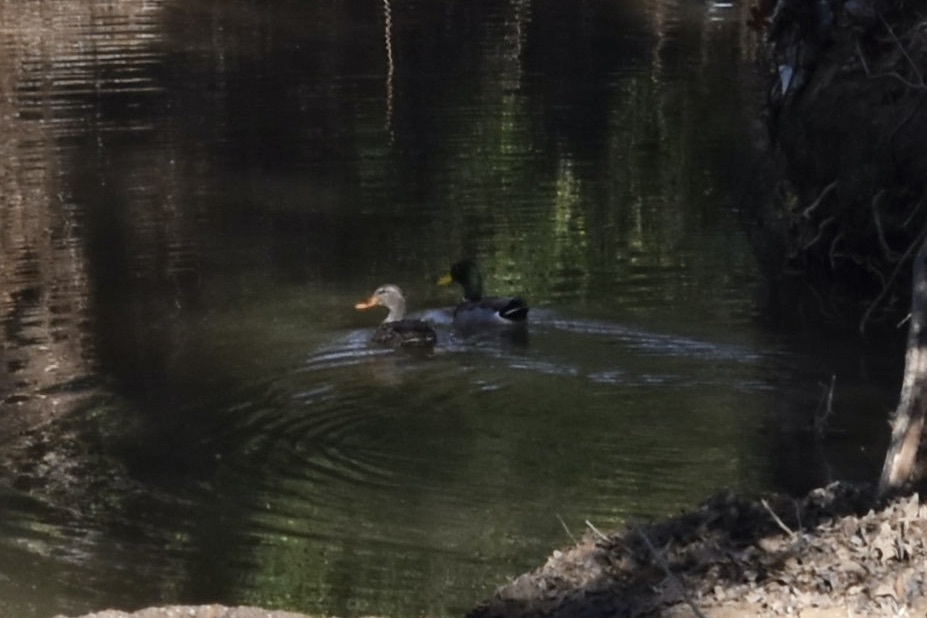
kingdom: Animalia
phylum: Chordata
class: Aves
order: Anseriformes
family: Anatidae
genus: Anas
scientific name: Anas platyrhynchos
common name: Mallard
